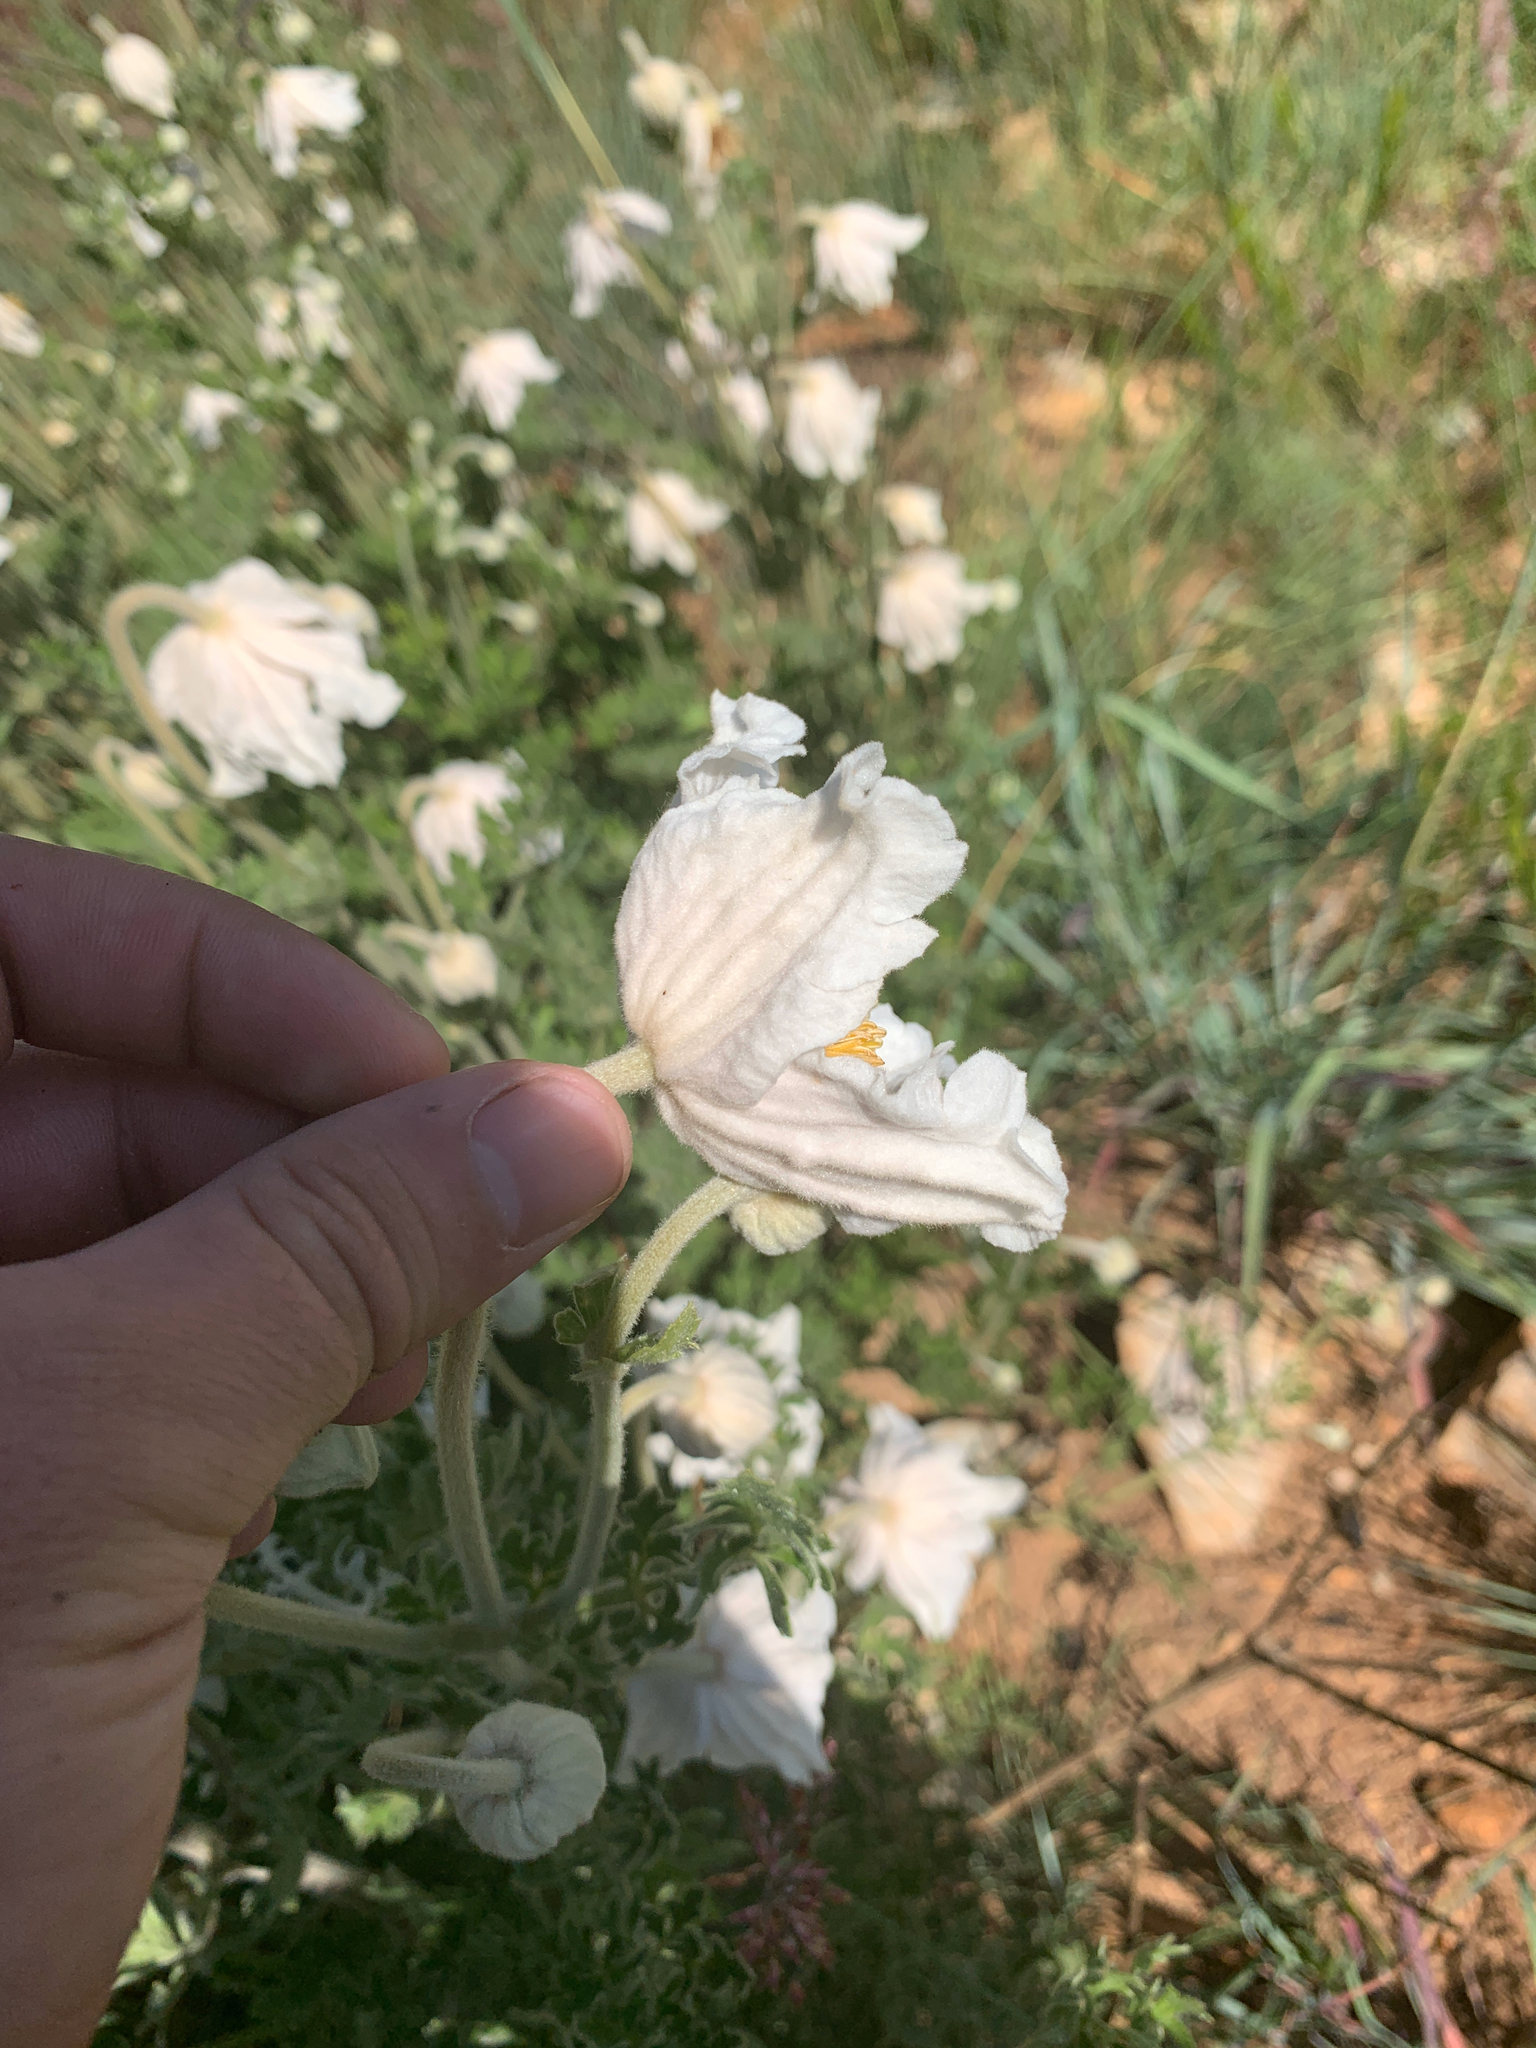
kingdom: Plantae
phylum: Tracheophyta
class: Magnoliopsida
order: Ranunculales
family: Ranunculaceae
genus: Clematis
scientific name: Clematis villosa
